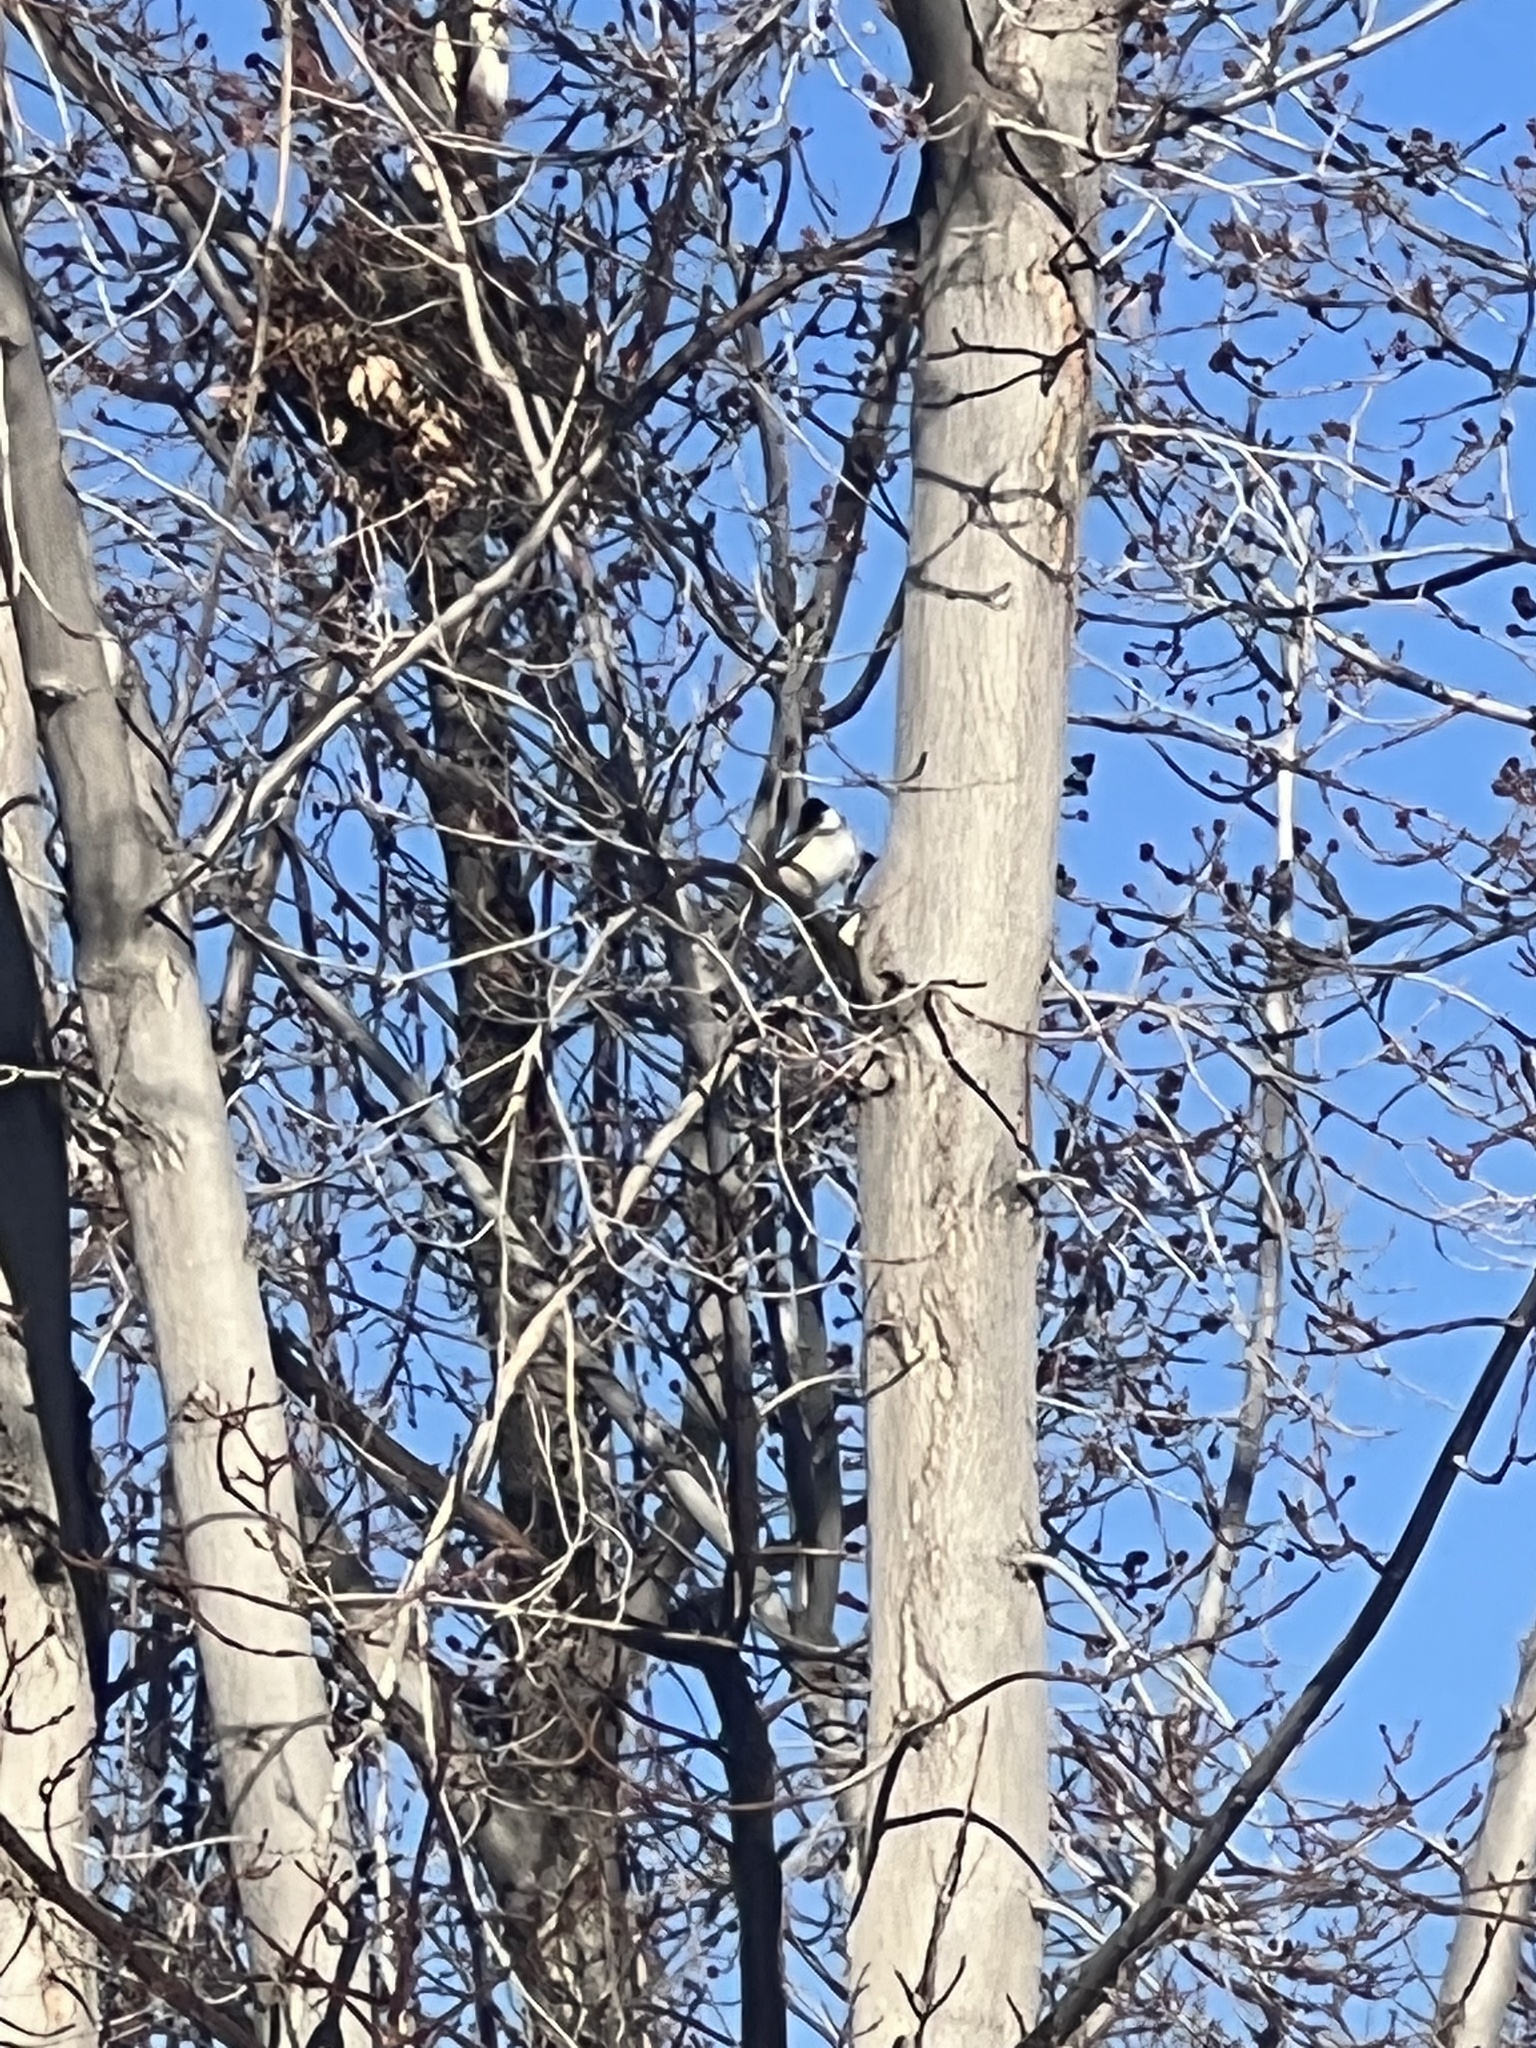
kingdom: Animalia
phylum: Chordata
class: Aves
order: Passeriformes
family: Paridae
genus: Poecile
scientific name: Poecile atricapillus
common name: Black-capped chickadee
